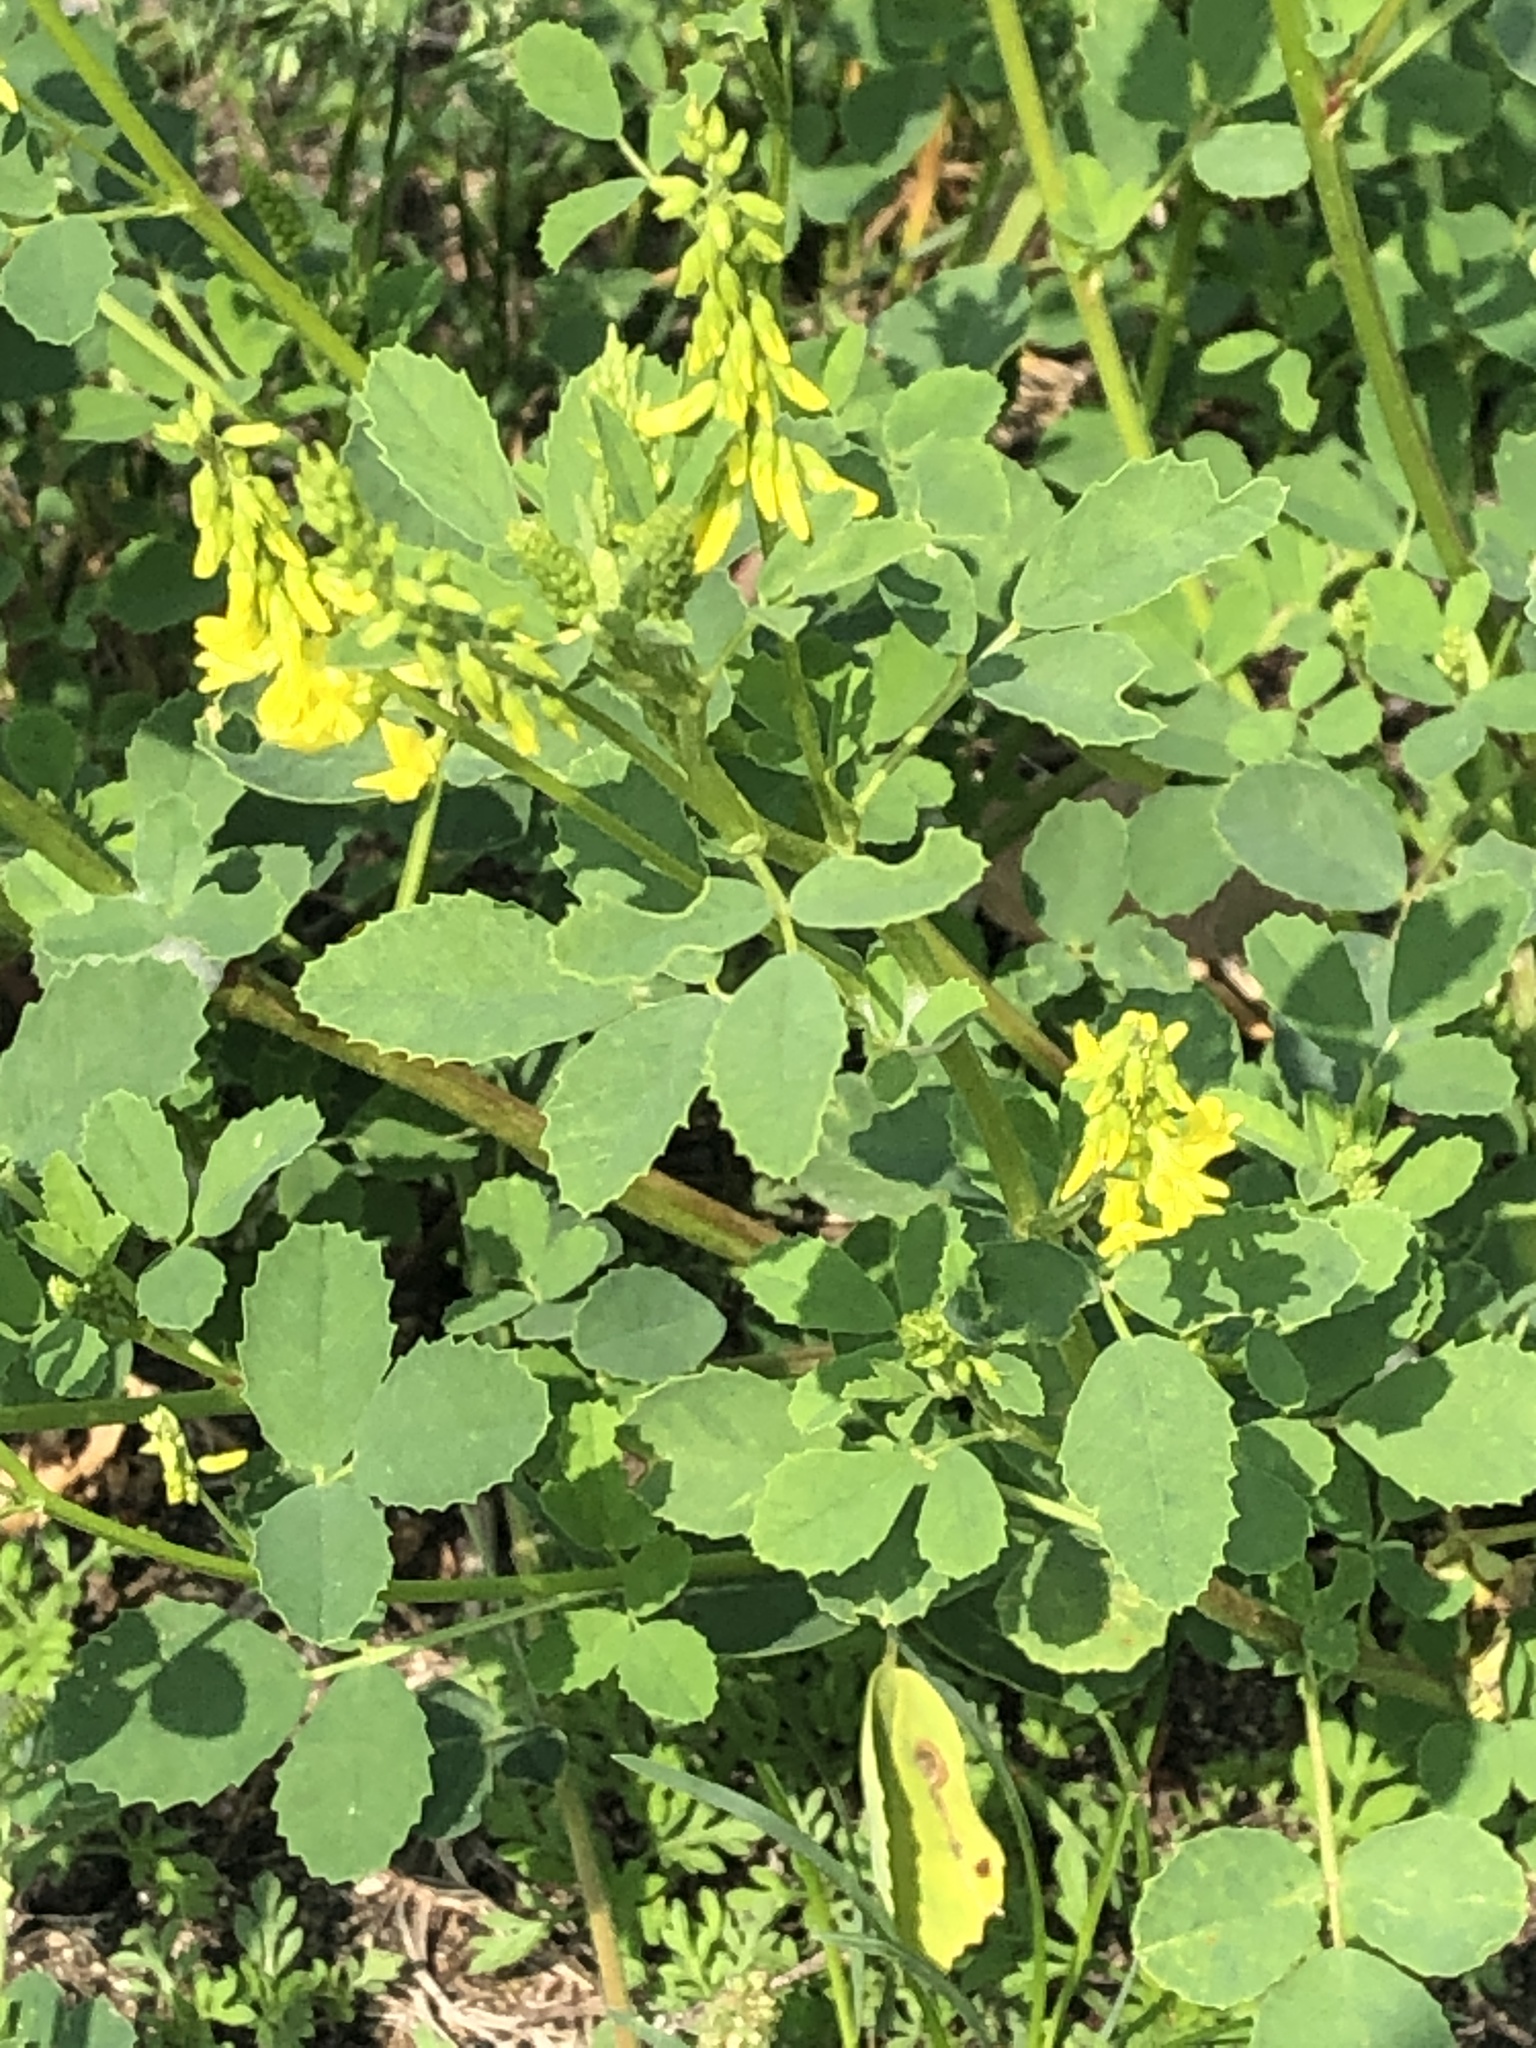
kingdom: Plantae
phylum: Tracheophyta
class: Magnoliopsida
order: Fabales
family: Fabaceae
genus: Melilotus
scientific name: Melilotus officinalis
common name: Sweetclover
